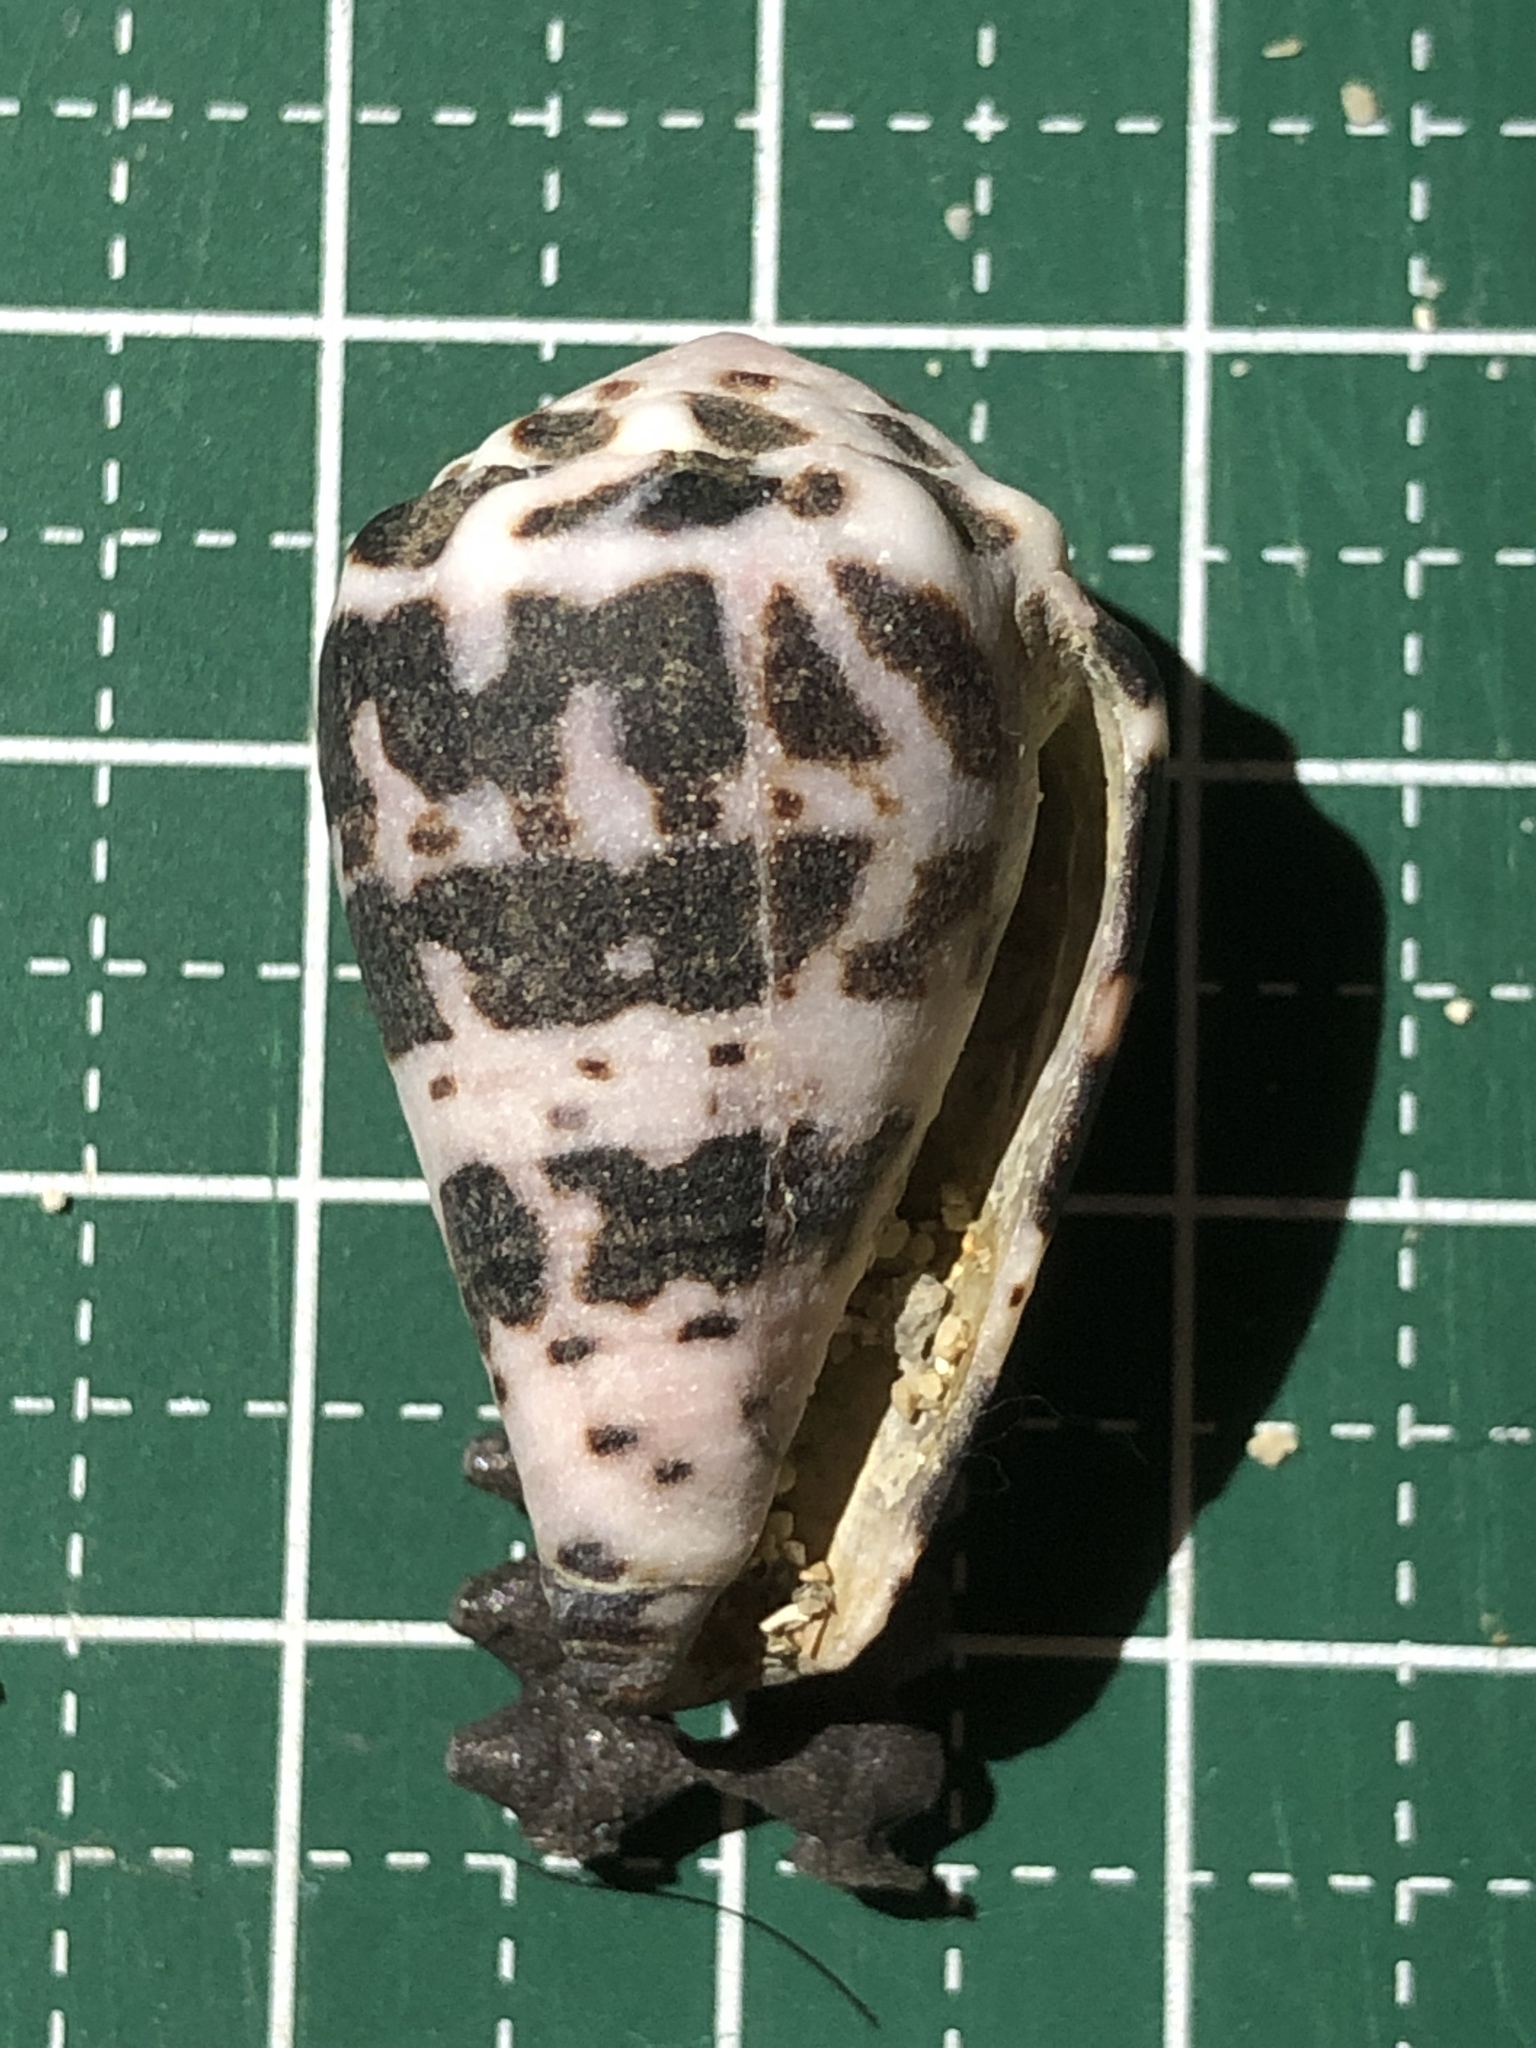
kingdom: Animalia
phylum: Mollusca
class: Gastropoda
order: Neogastropoda
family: Conidae
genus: Conus
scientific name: Conus ebraeus
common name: Hebrew cone
